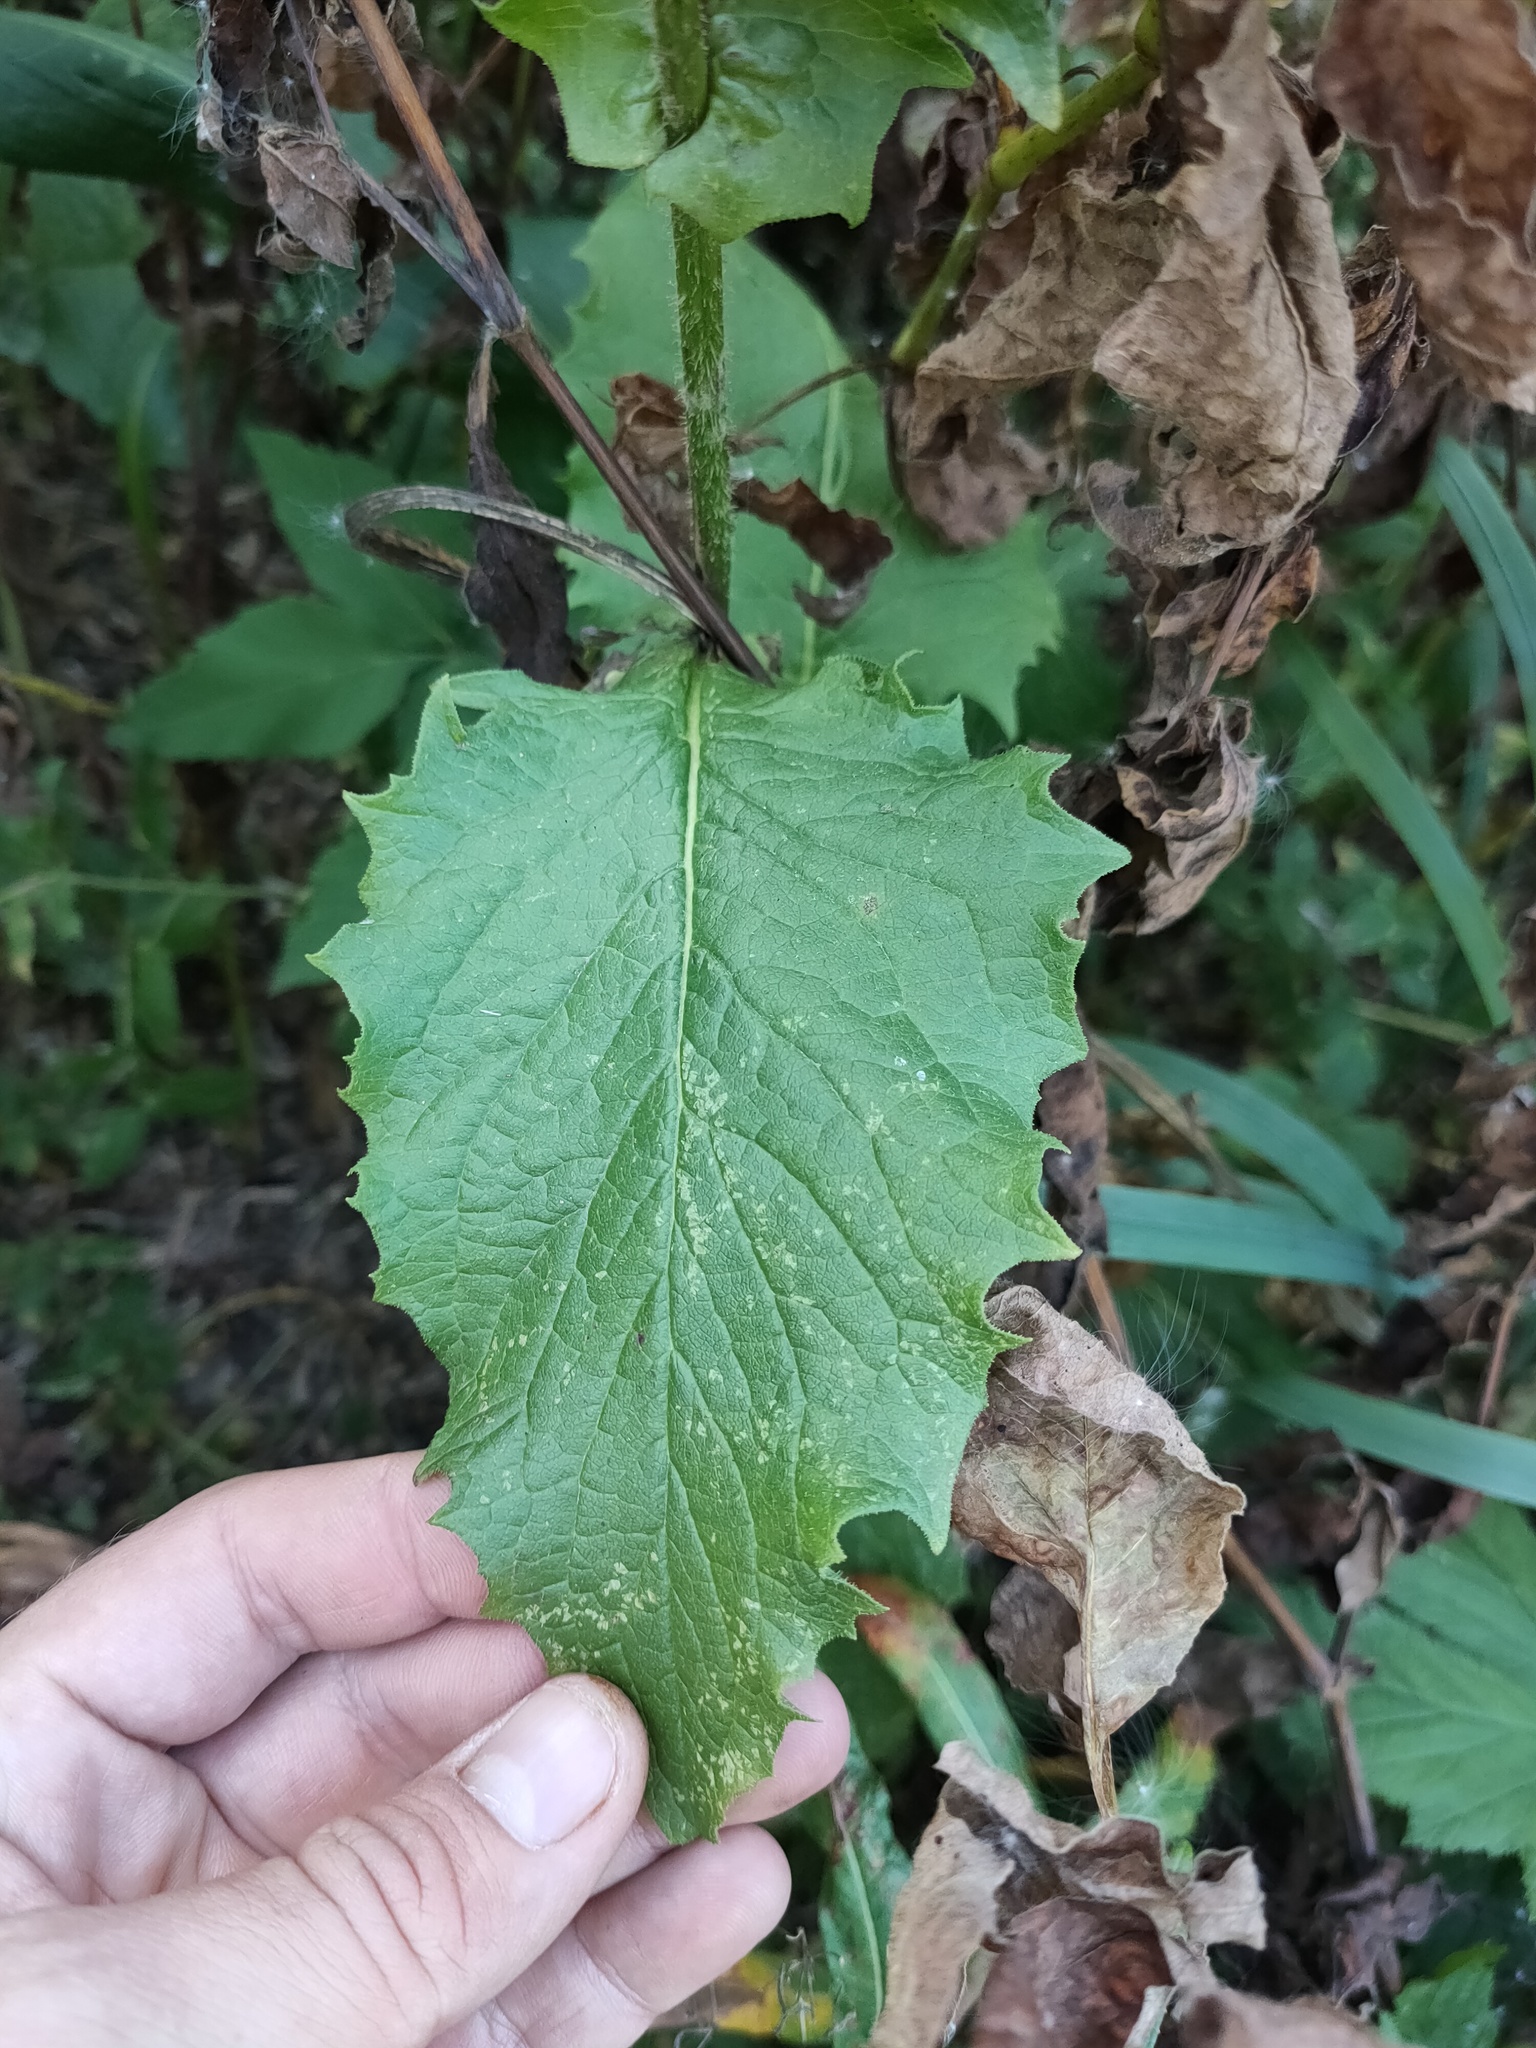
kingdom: Plantae
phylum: Tracheophyta
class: Magnoliopsida
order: Asterales
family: Asteraceae
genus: Crepis
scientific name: Crepis sibirica
